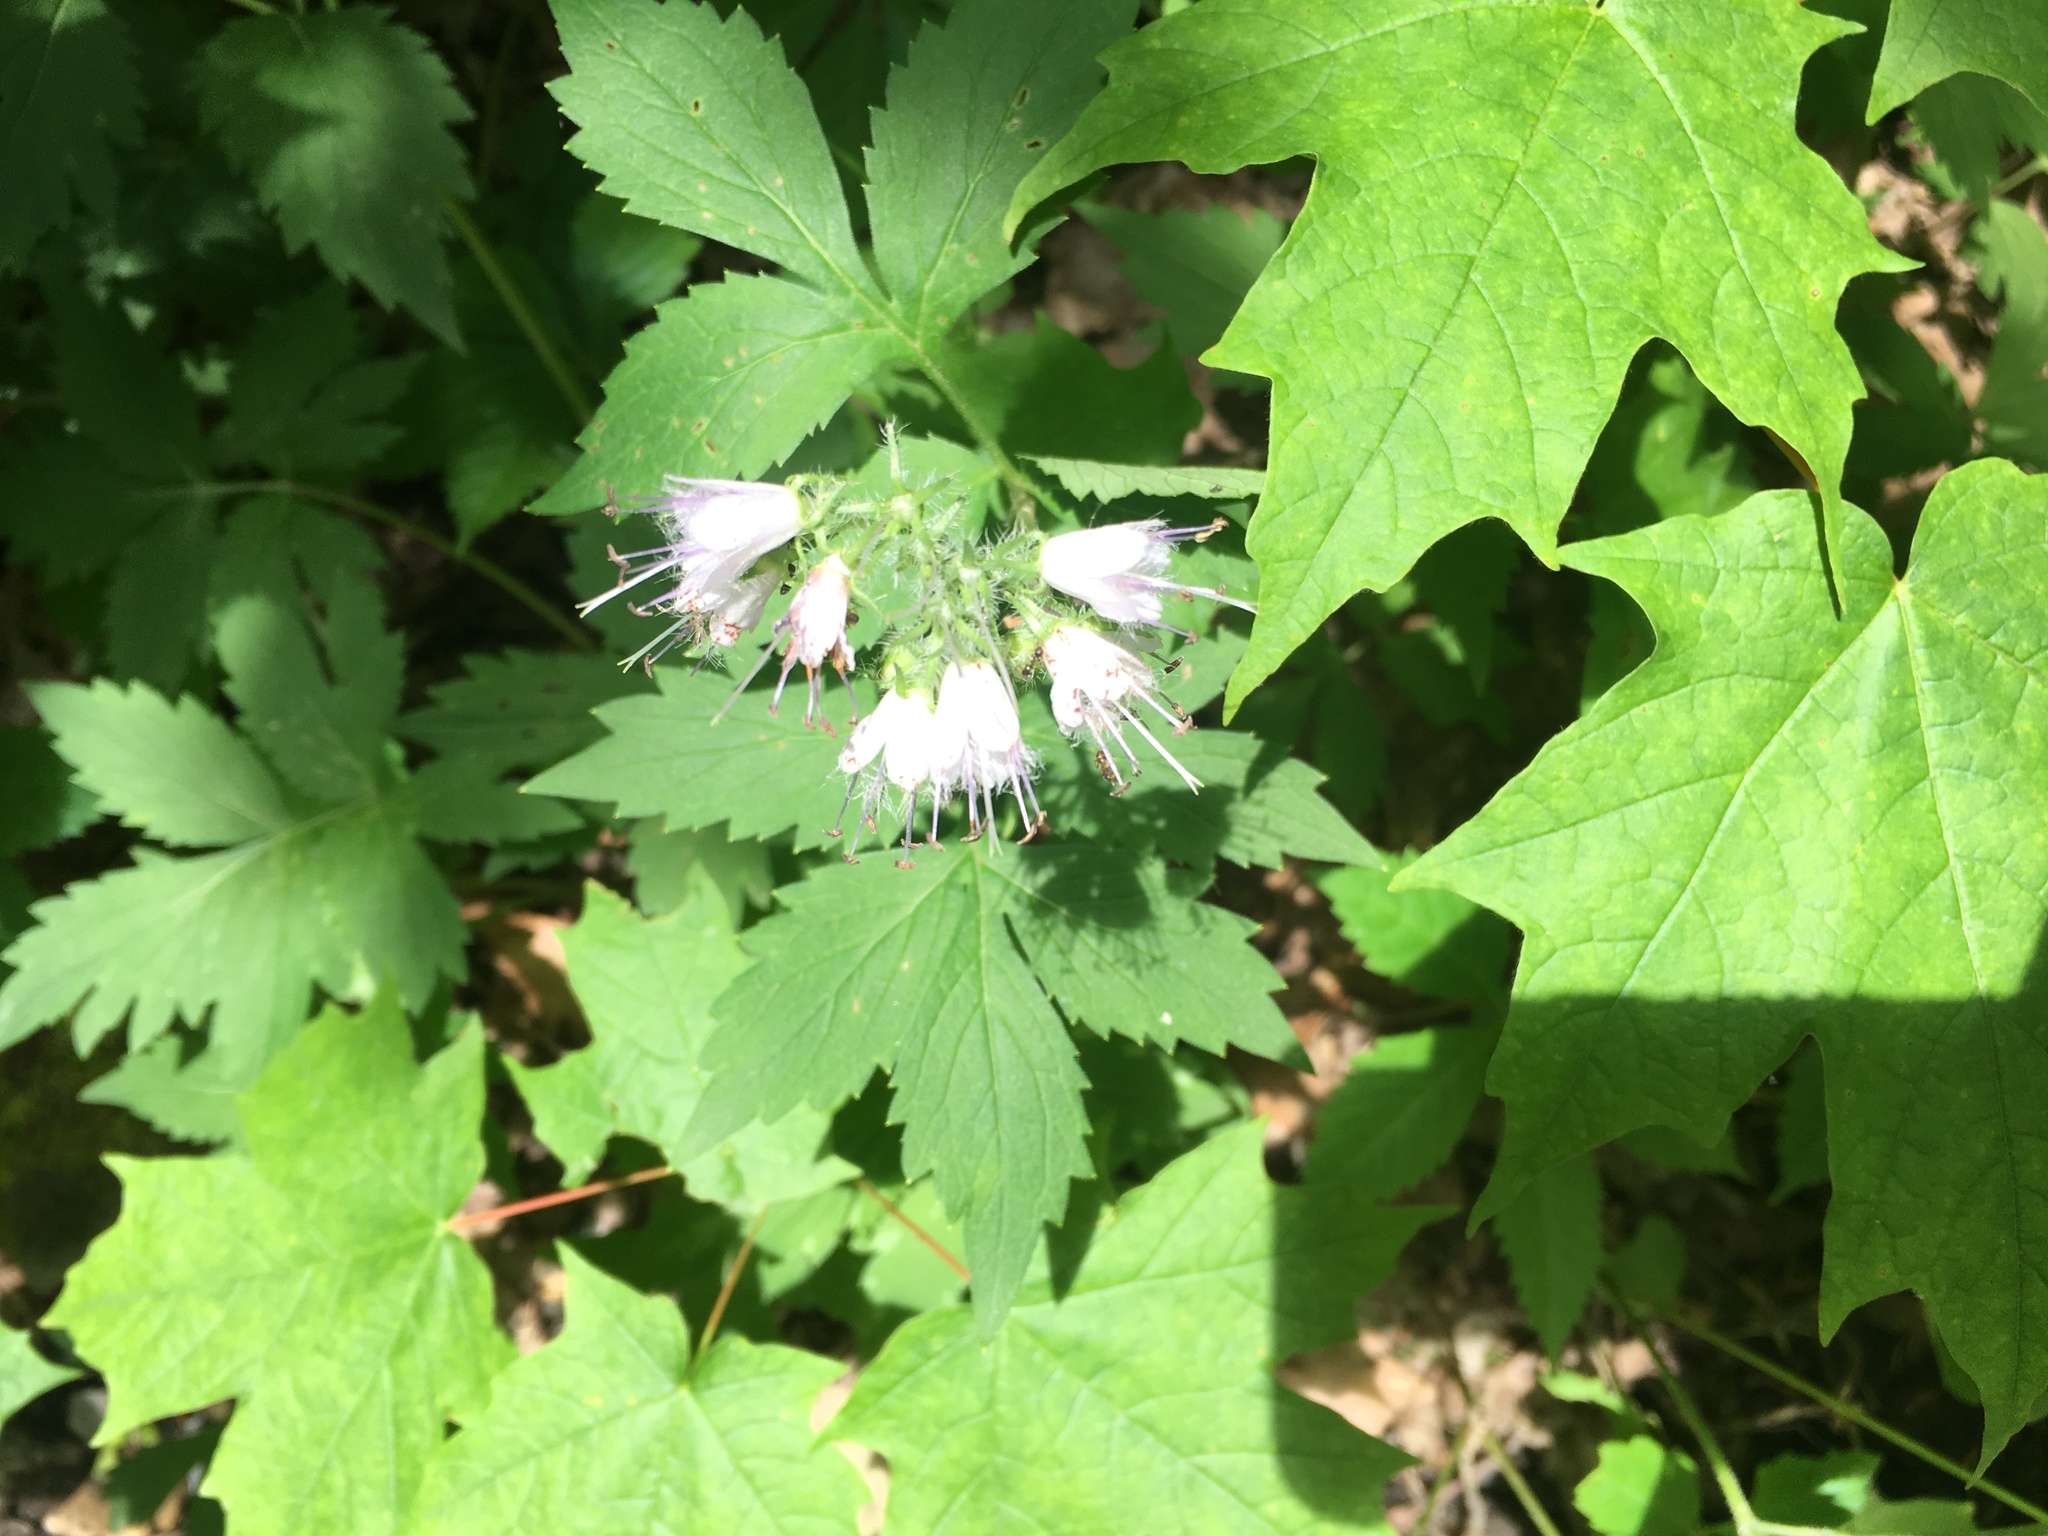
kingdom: Plantae
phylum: Tracheophyta
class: Magnoliopsida
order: Boraginales
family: Hydrophyllaceae
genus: Hydrophyllum
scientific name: Hydrophyllum virginianum
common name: Virginia waterleaf
